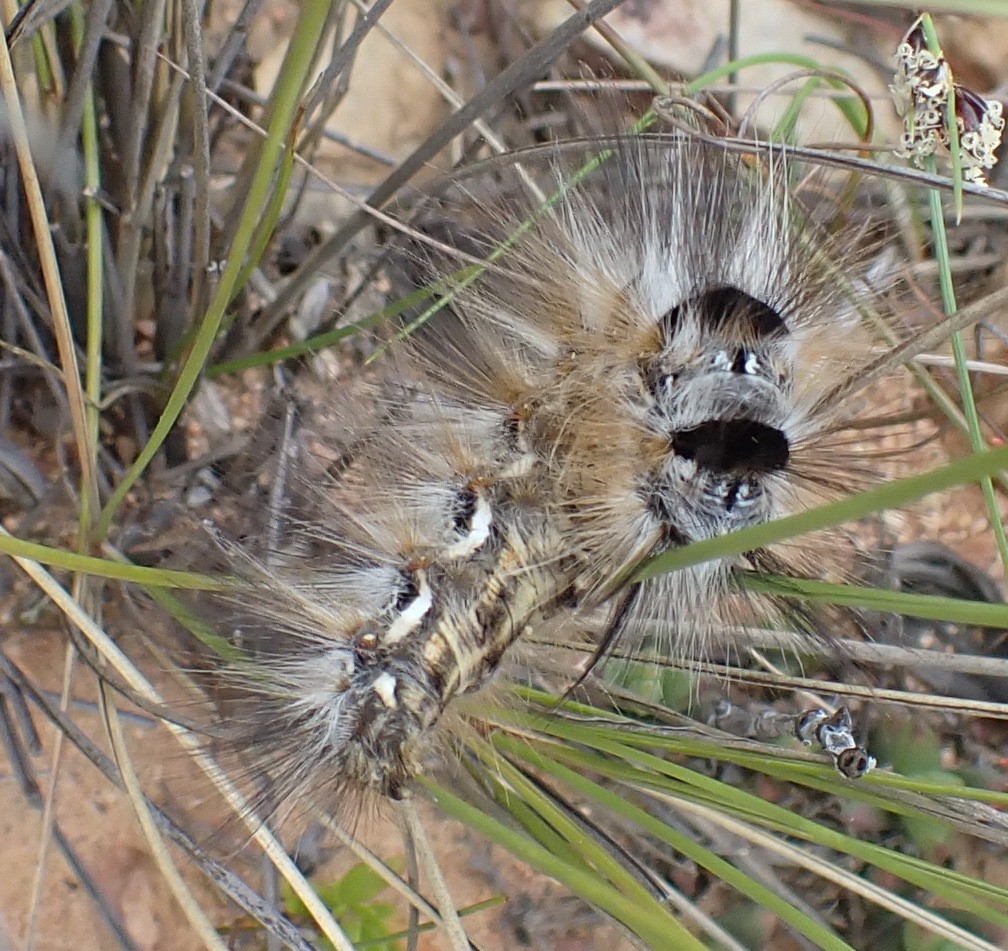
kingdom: Animalia
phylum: Arthropoda
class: Insecta
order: Lepidoptera
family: Eupterotidae
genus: Rhabdosia
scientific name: Rhabdosia vaninia
